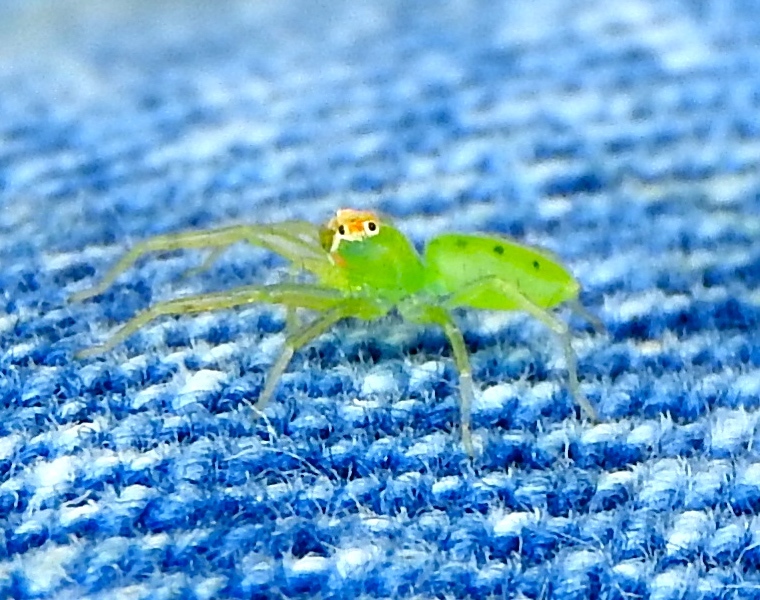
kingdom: Animalia
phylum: Arthropoda
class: Arachnida
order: Araneae
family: Salticidae
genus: Lyssomanes
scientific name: Lyssomanes
